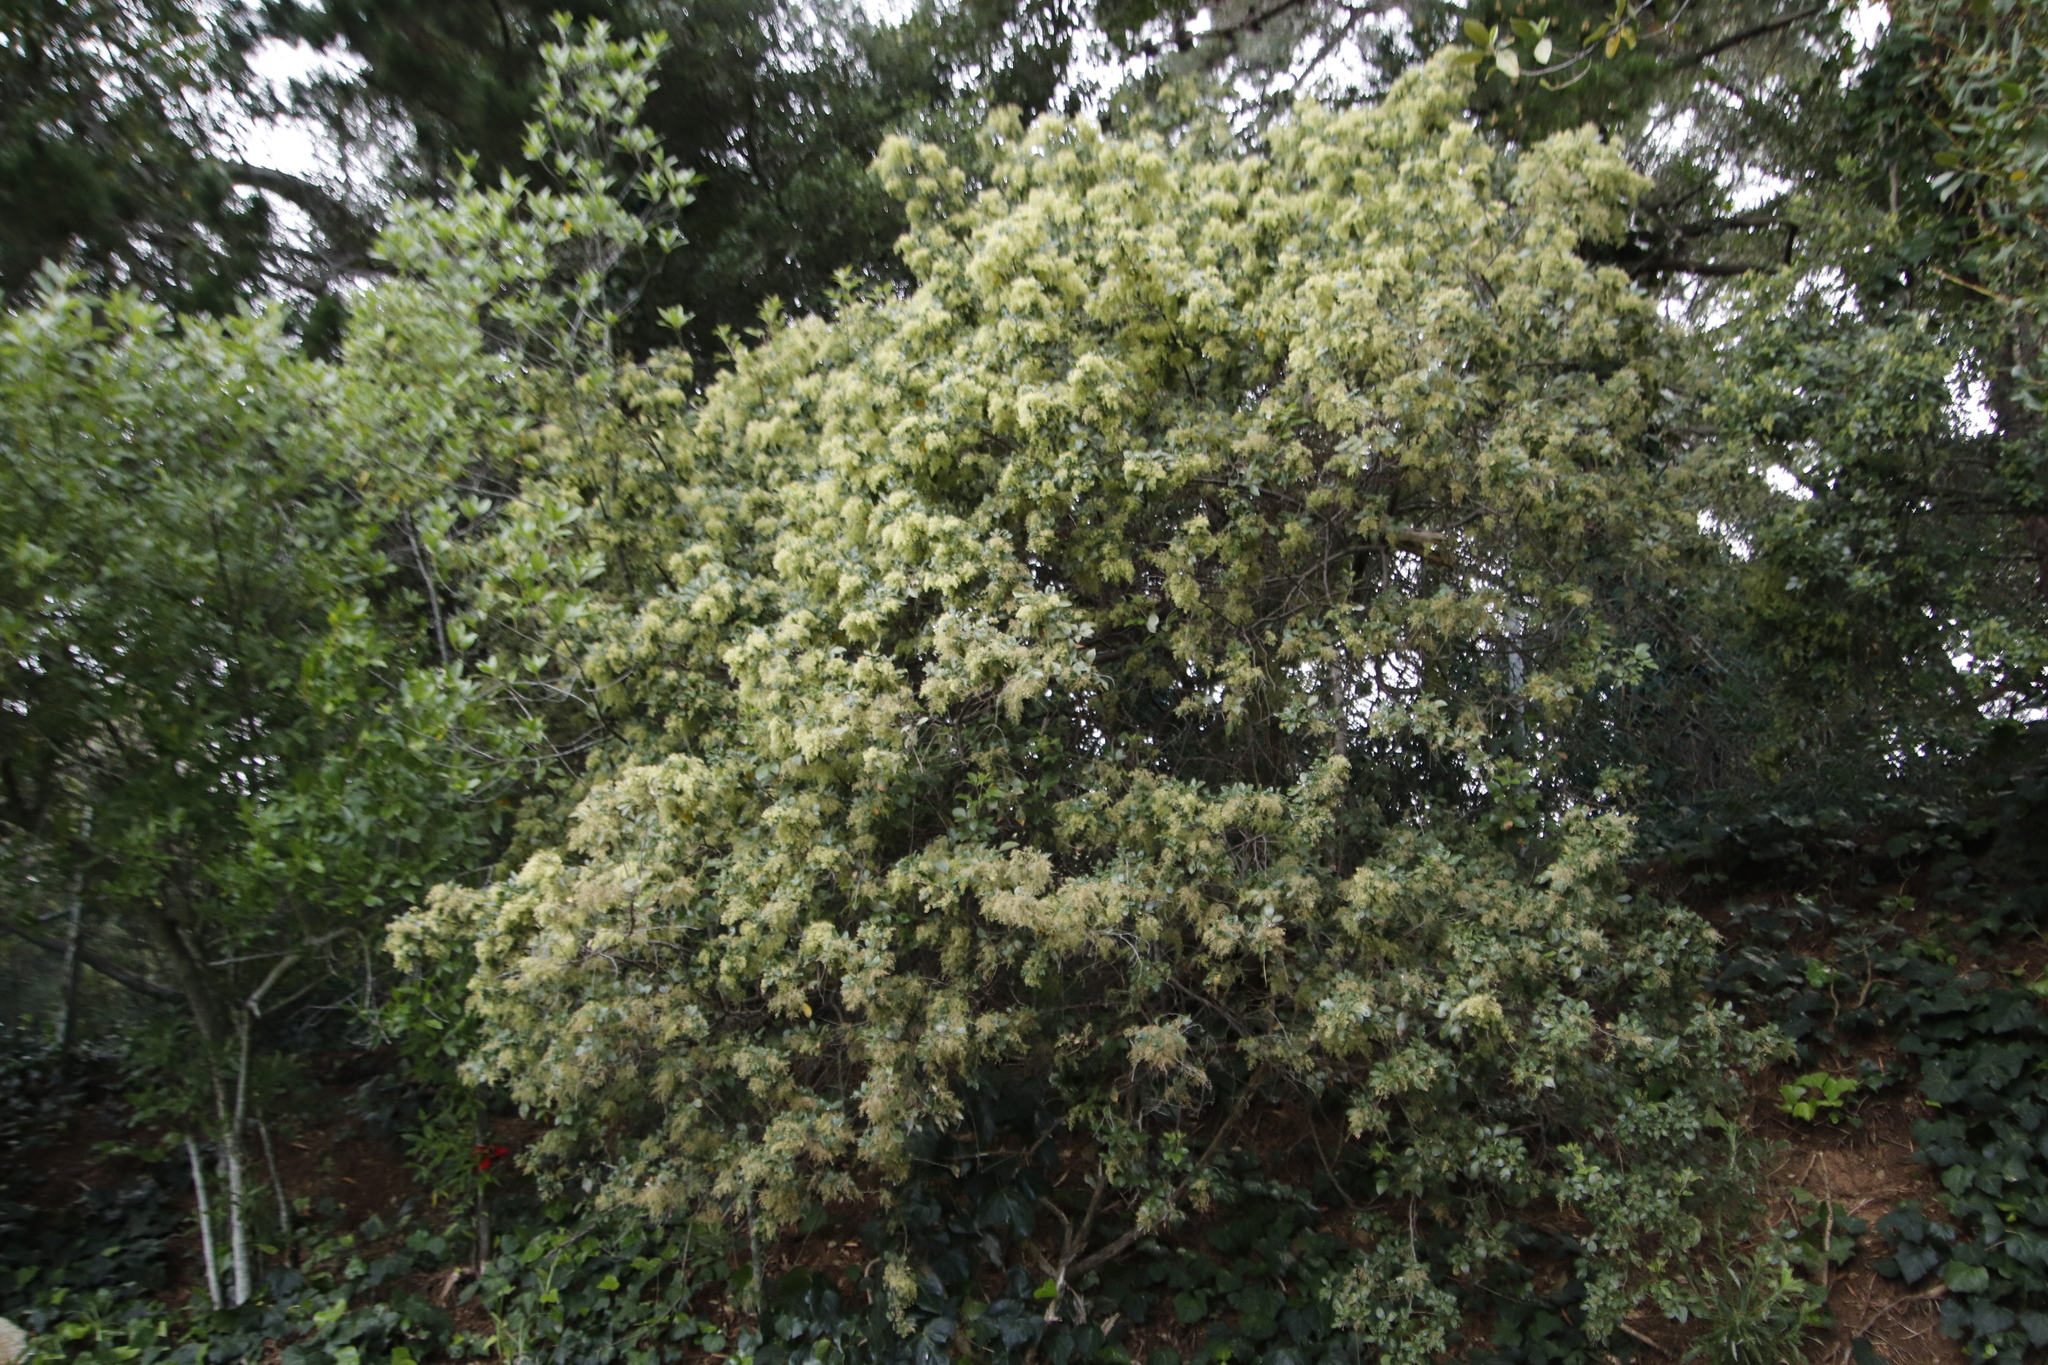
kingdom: Plantae
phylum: Tracheophyta
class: Magnoliopsida
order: Sapindales
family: Anacardiaceae
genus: Searsia
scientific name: Searsia tomentosa
